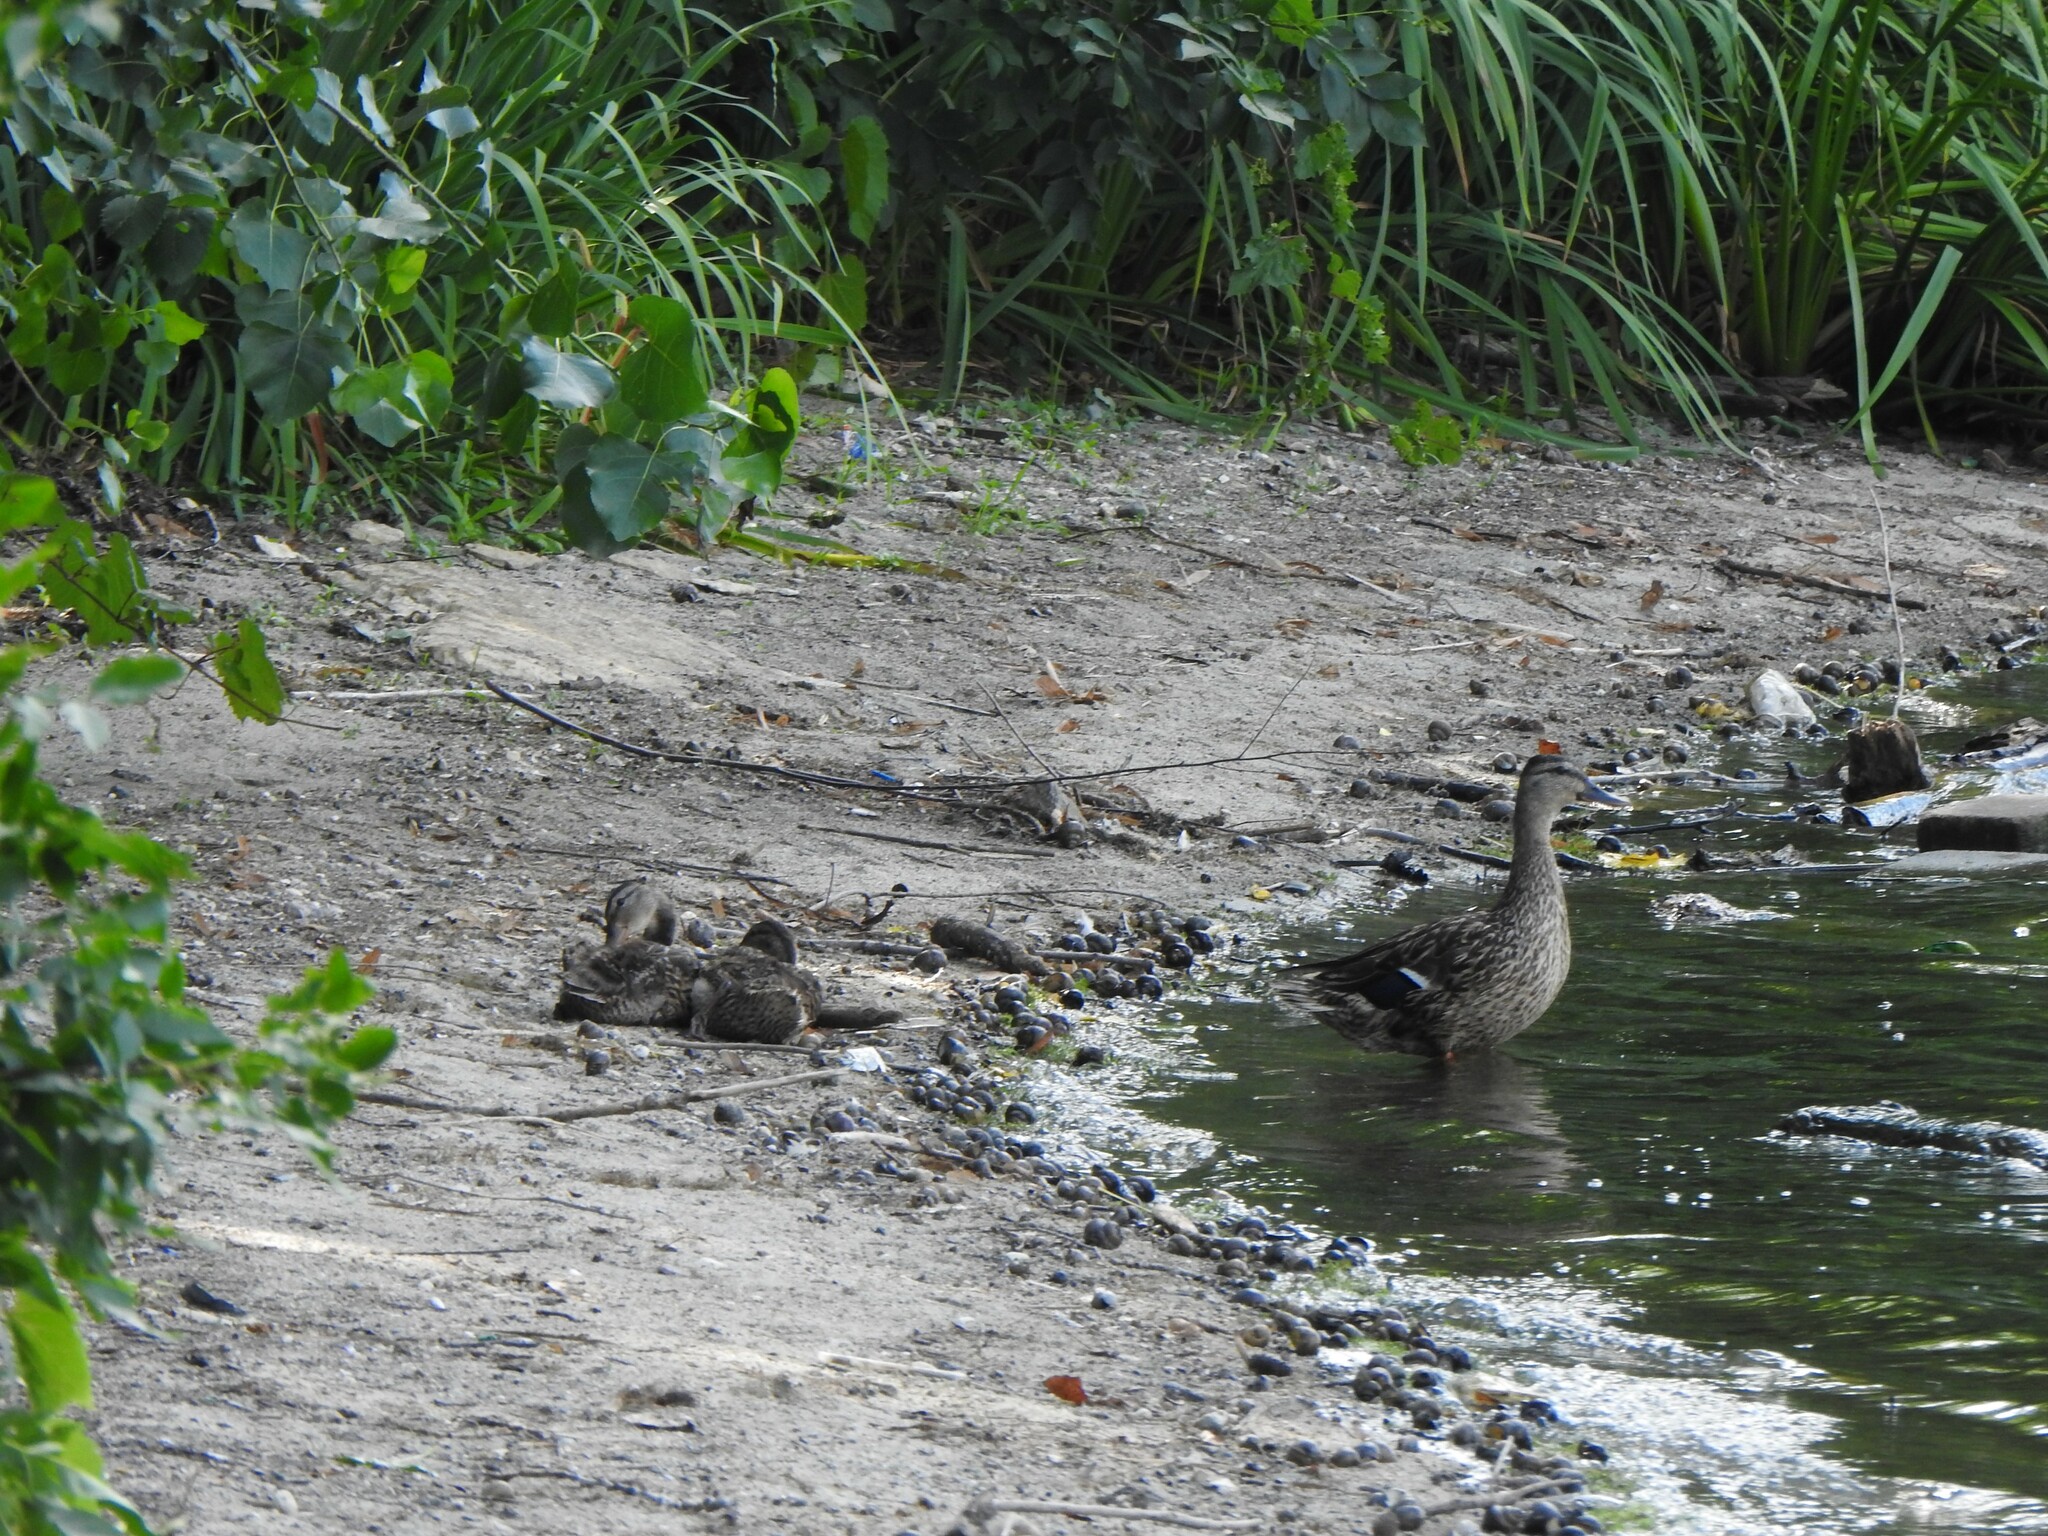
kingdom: Animalia
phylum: Chordata
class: Aves
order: Anseriformes
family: Anatidae
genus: Anas
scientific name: Anas platyrhynchos
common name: Mallard
